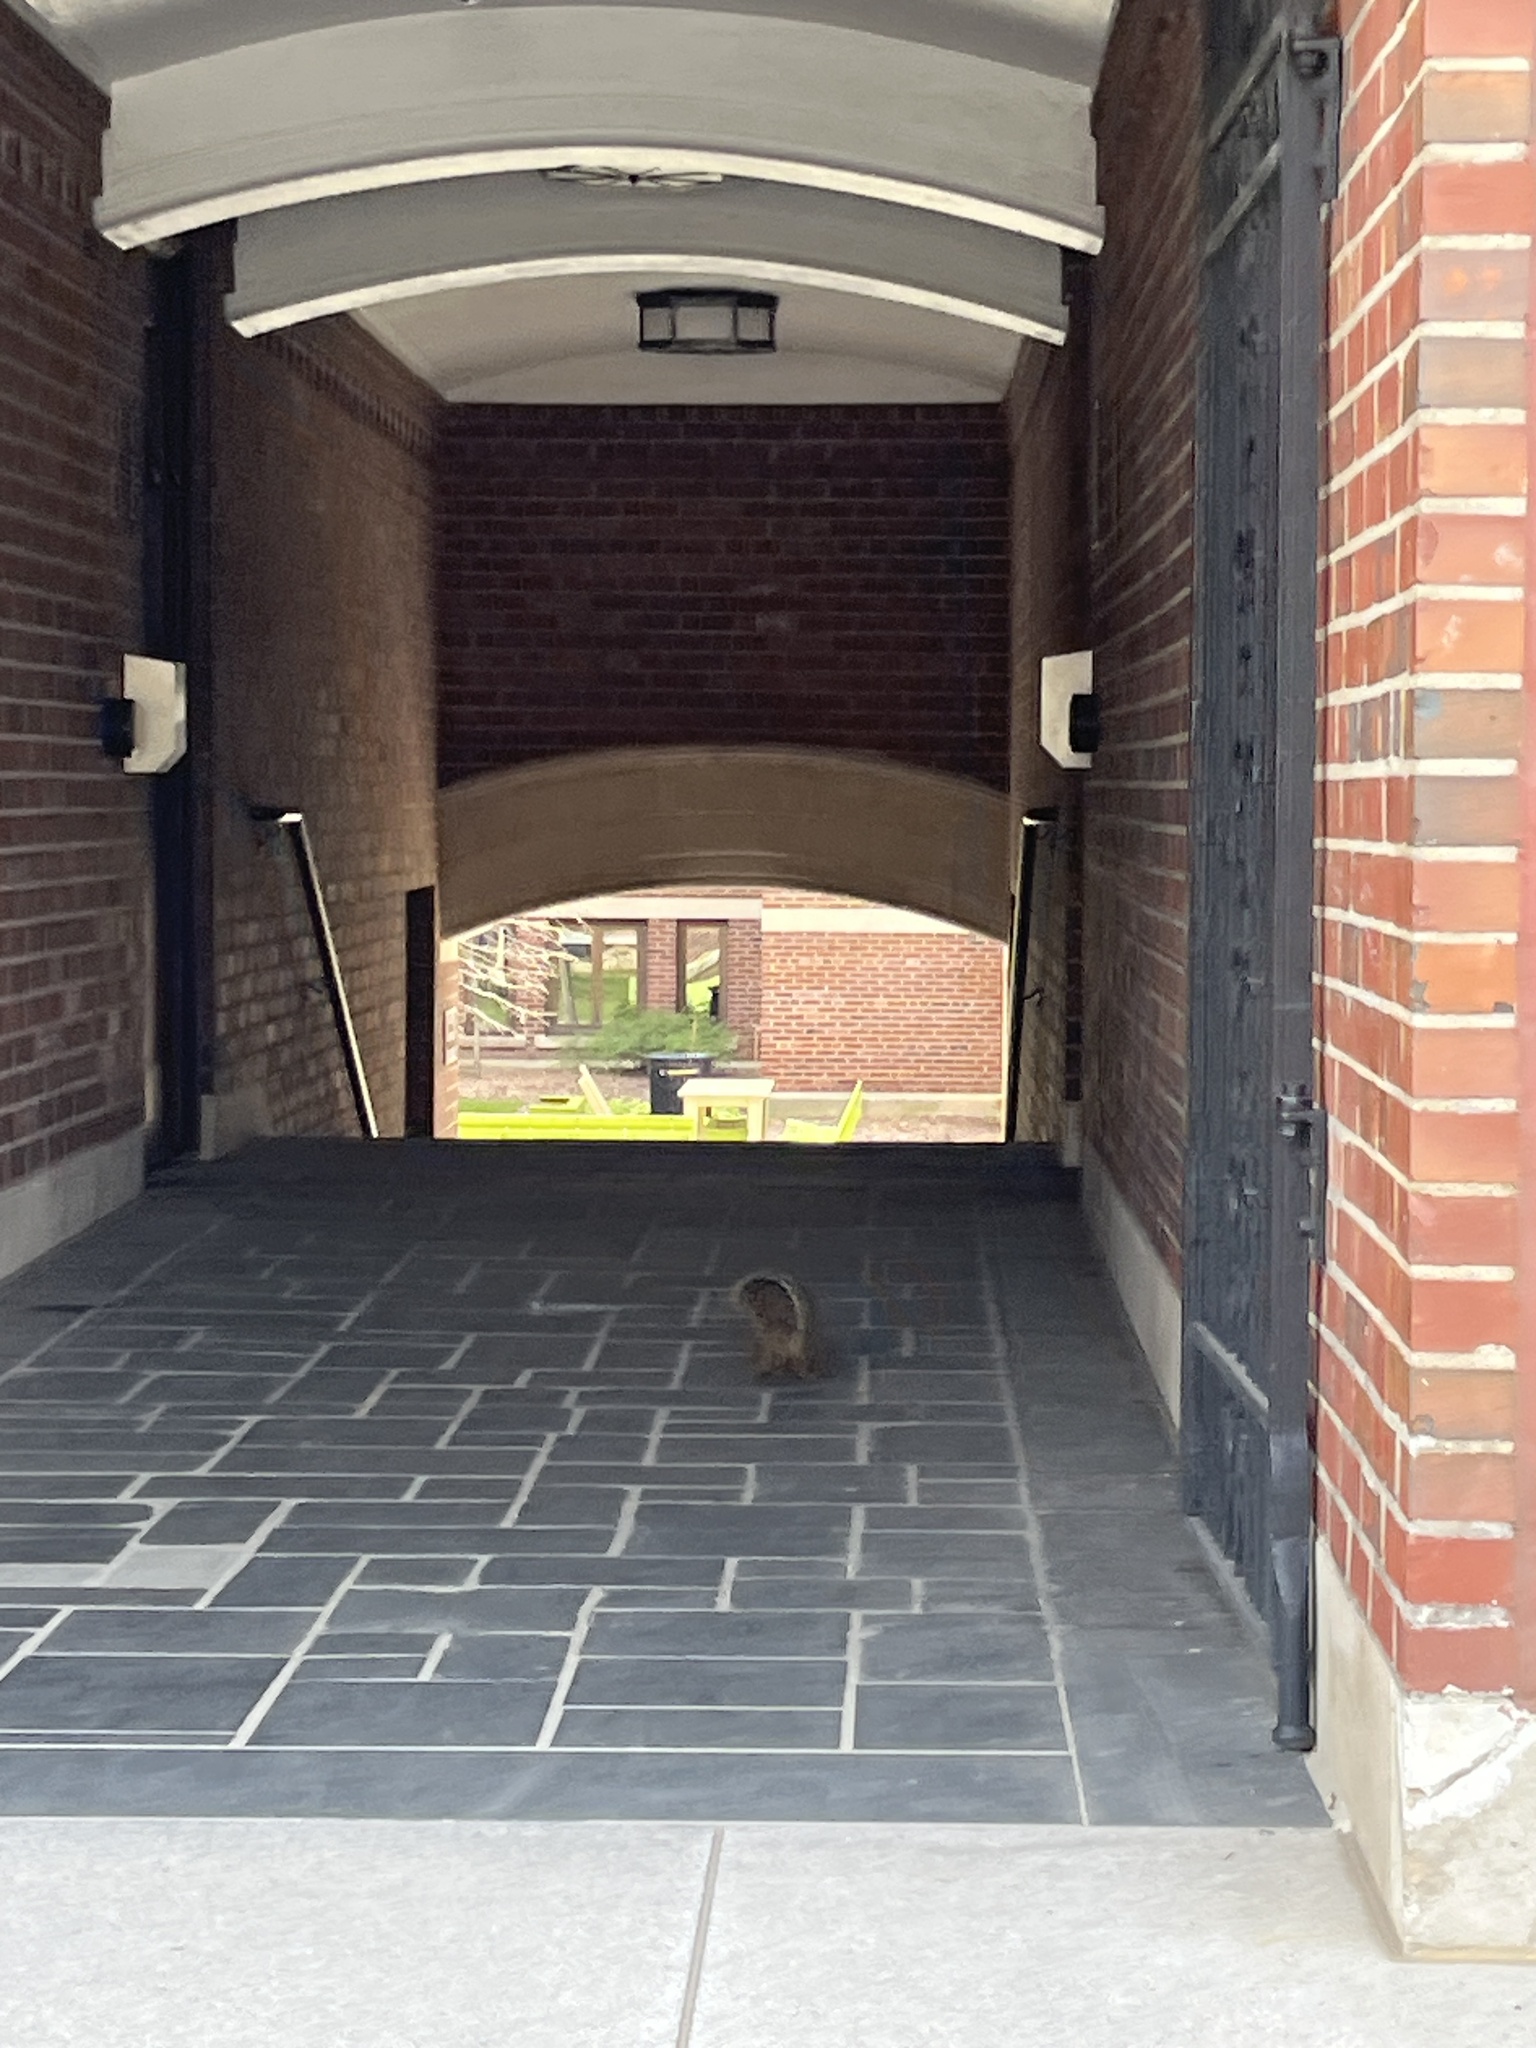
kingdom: Animalia
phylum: Chordata
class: Mammalia
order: Rodentia
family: Sciuridae
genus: Sciurus
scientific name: Sciurus niger
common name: Fox squirrel
